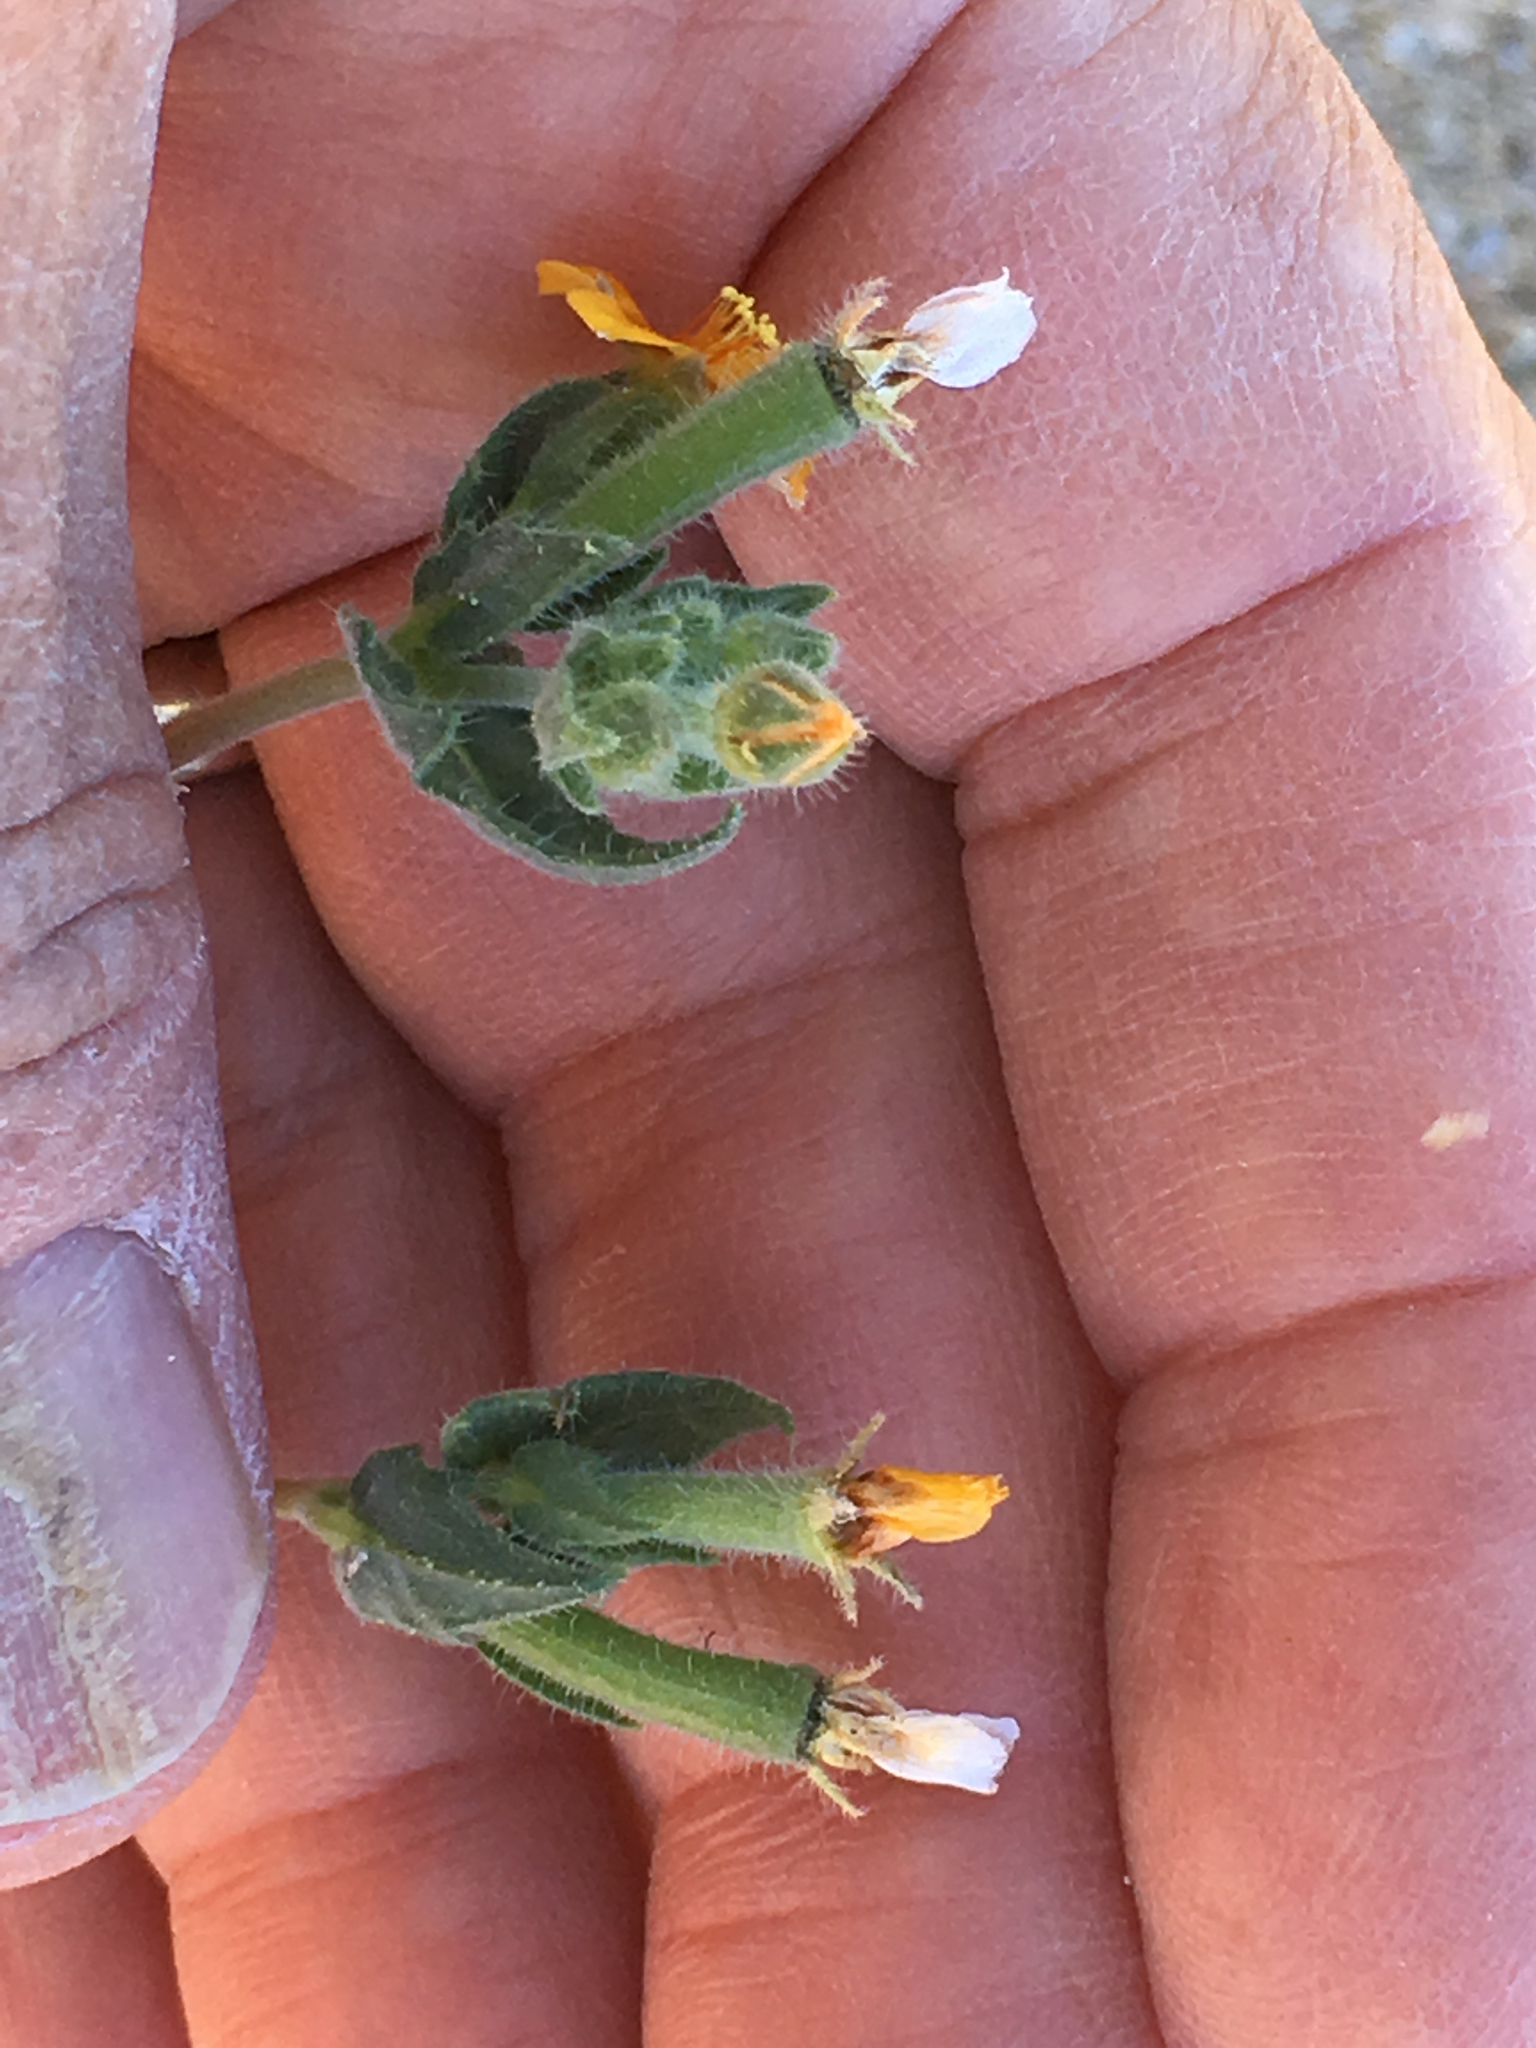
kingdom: Plantae
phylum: Tracheophyta
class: Magnoliopsida
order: Cornales
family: Loasaceae
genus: Mentzelia
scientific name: Mentzelia veatchiana
